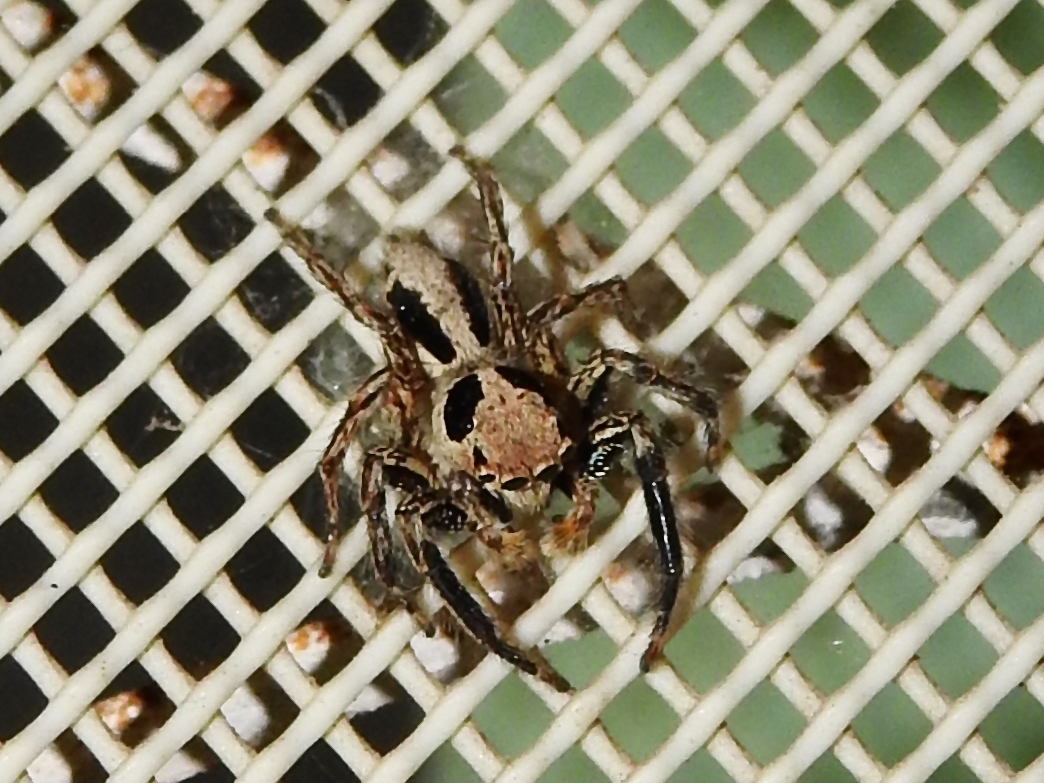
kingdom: Animalia
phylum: Arthropoda
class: Arachnida
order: Araneae
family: Salticidae
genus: Plexippus
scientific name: Plexippus petersi
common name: Jumping spider
